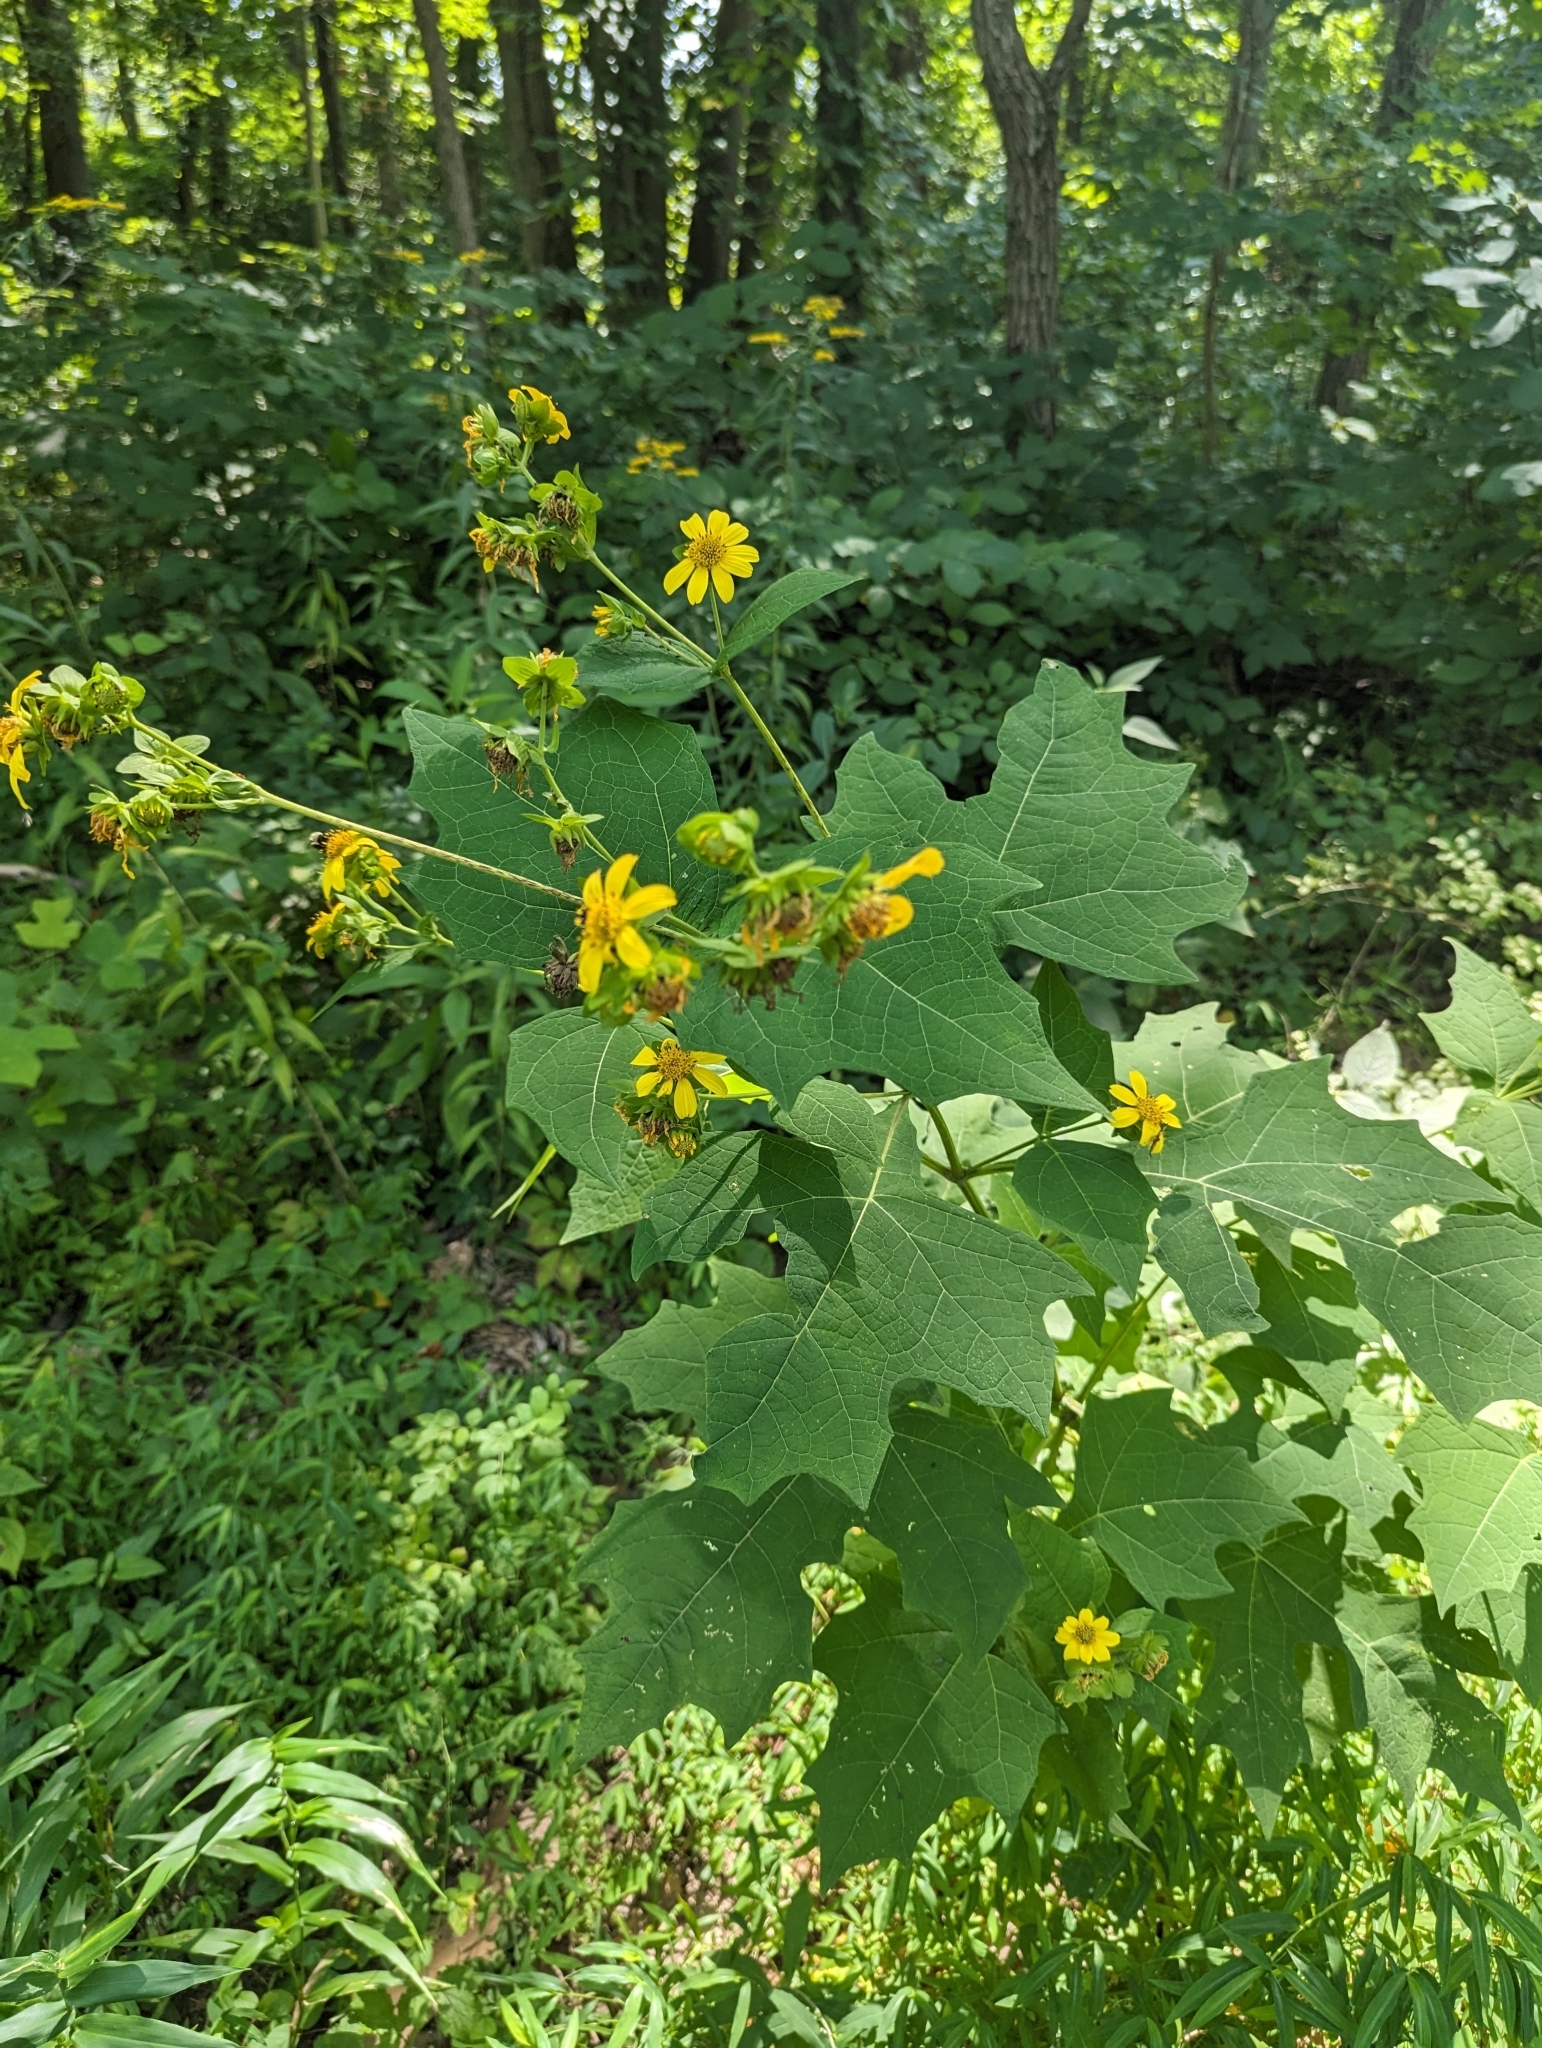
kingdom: Plantae
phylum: Tracheophyta
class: Magnoliopsida
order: Asterales
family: Asteraceae
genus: Smallanthus
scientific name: Smallanthus uvedalia
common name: Bear's-foot
